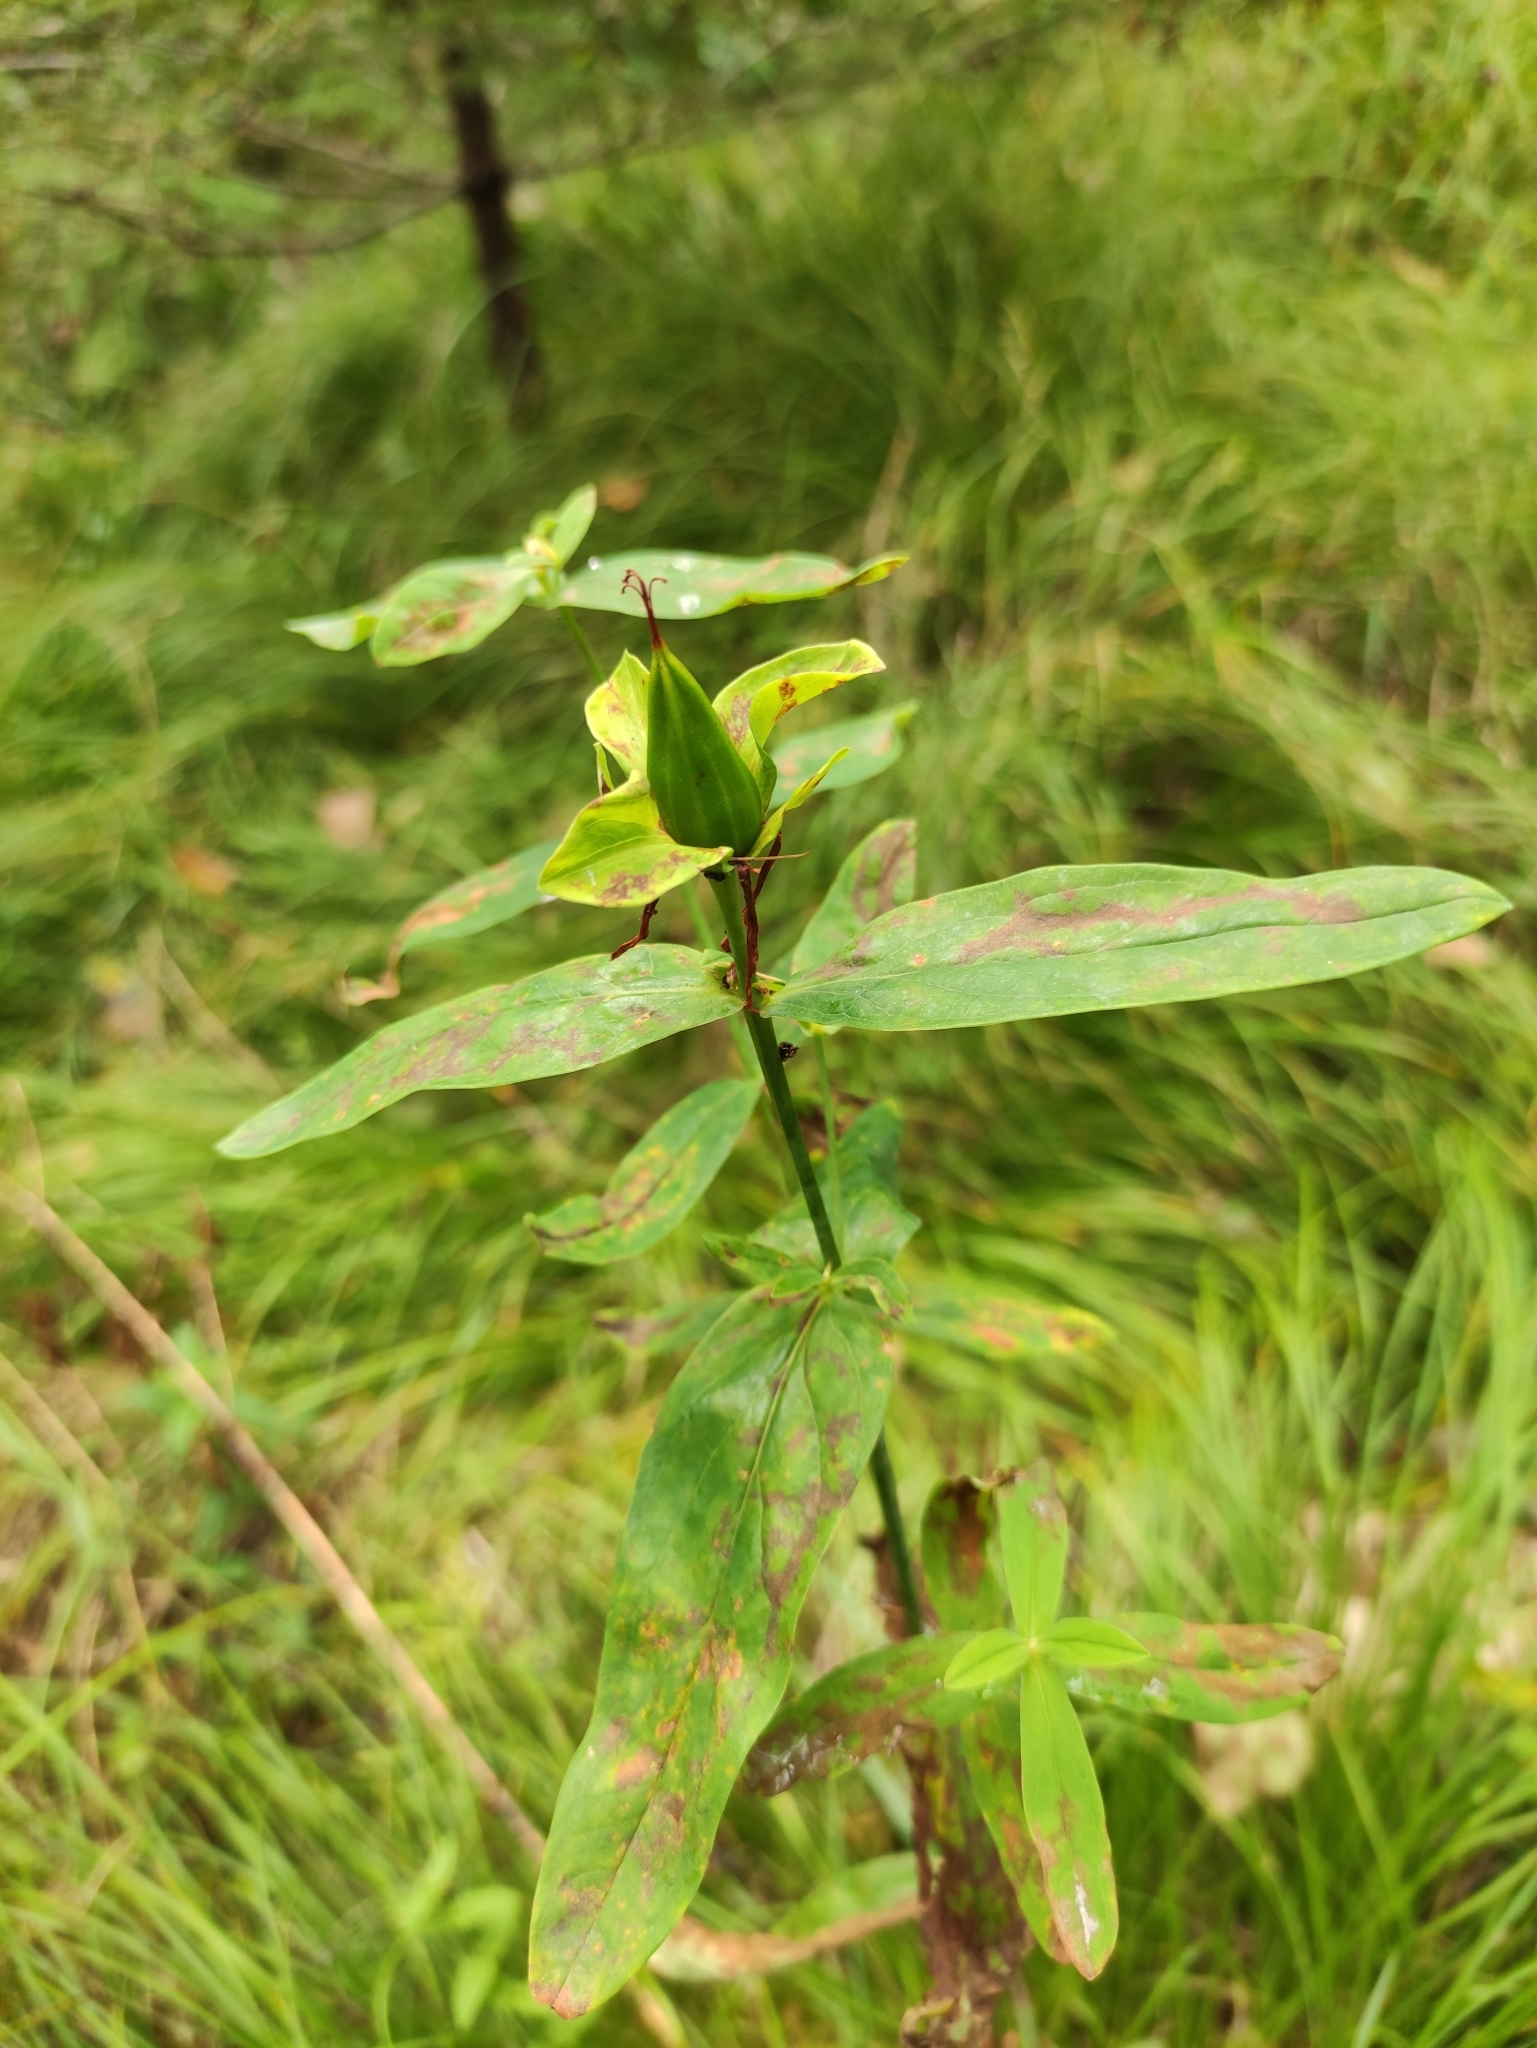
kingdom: Plantae
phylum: Tracheophyta
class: Magnoliopsida
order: Malpighiales
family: Hypericaceae
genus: Hypericum
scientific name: Hypericum ascyron
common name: Giant st. john's-wort
